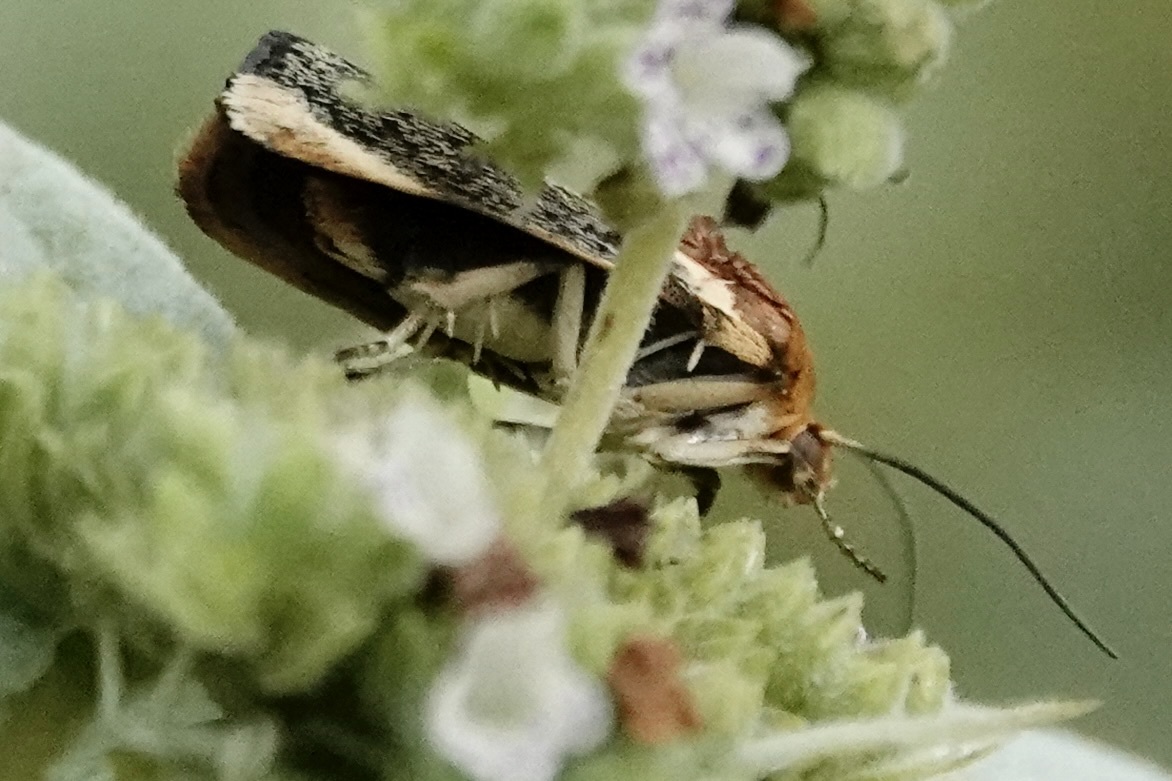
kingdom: Animalia
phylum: Arthropoda
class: Insecta
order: Lepidoptera
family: Noctuidae
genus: Spragueia
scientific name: Spragueia apicalis
